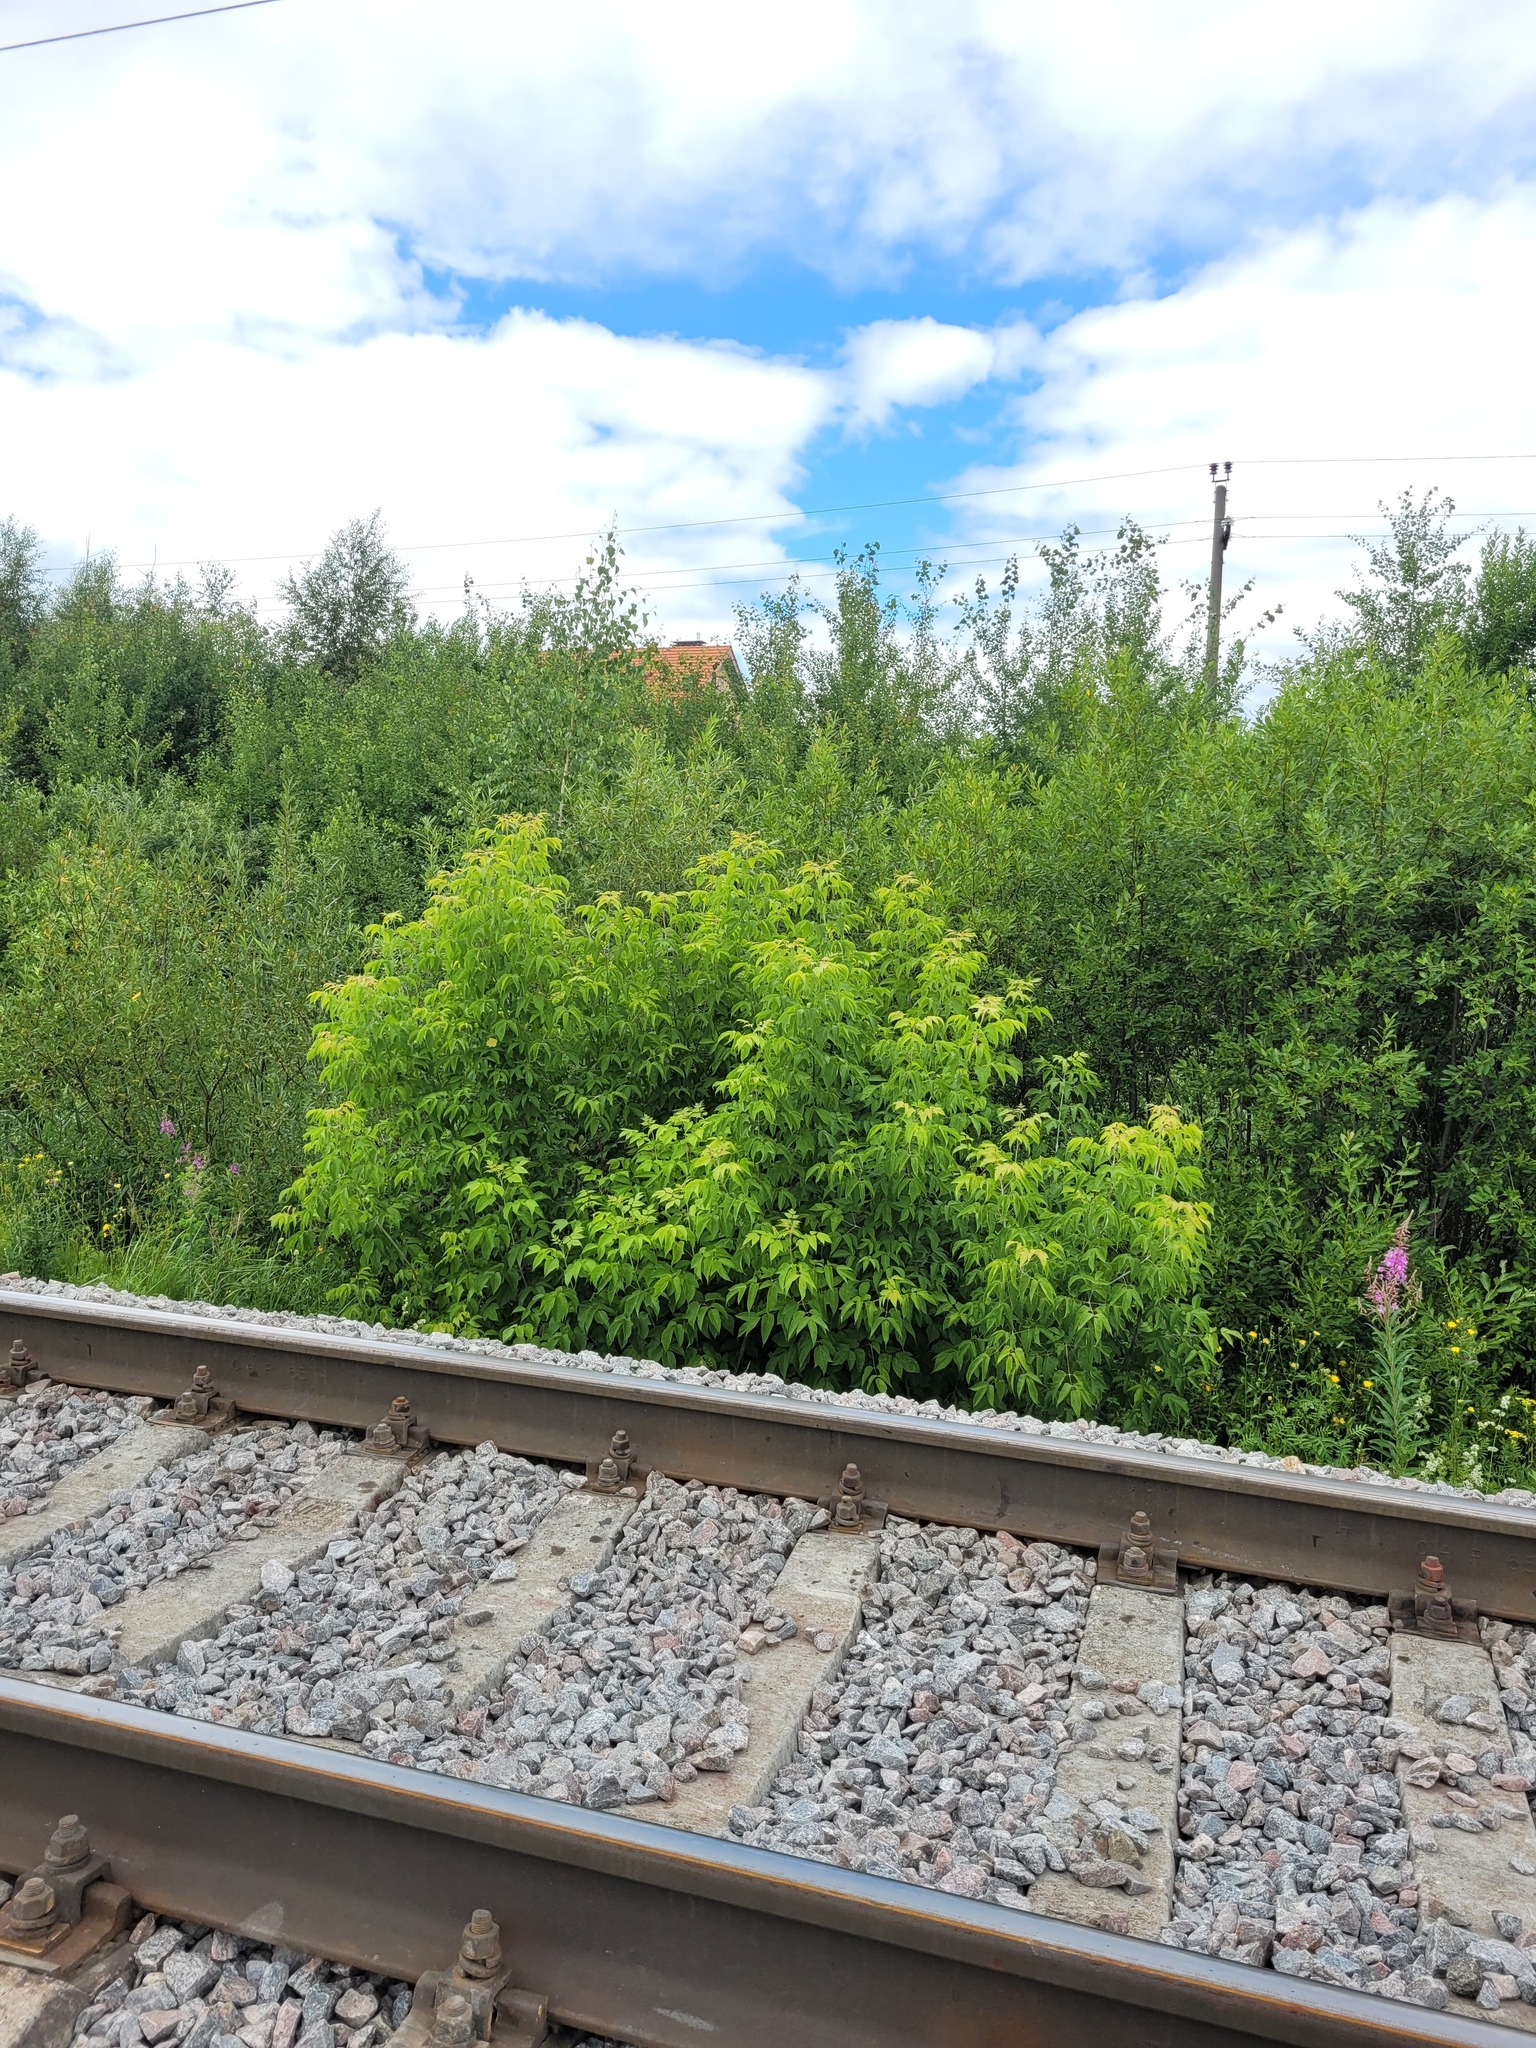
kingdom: Plantae
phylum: Tracheophyta
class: Magnoliopsida
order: Sapindales
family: Sapindaceae
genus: Acer
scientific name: Acer negundo
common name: Ashleaf maple
